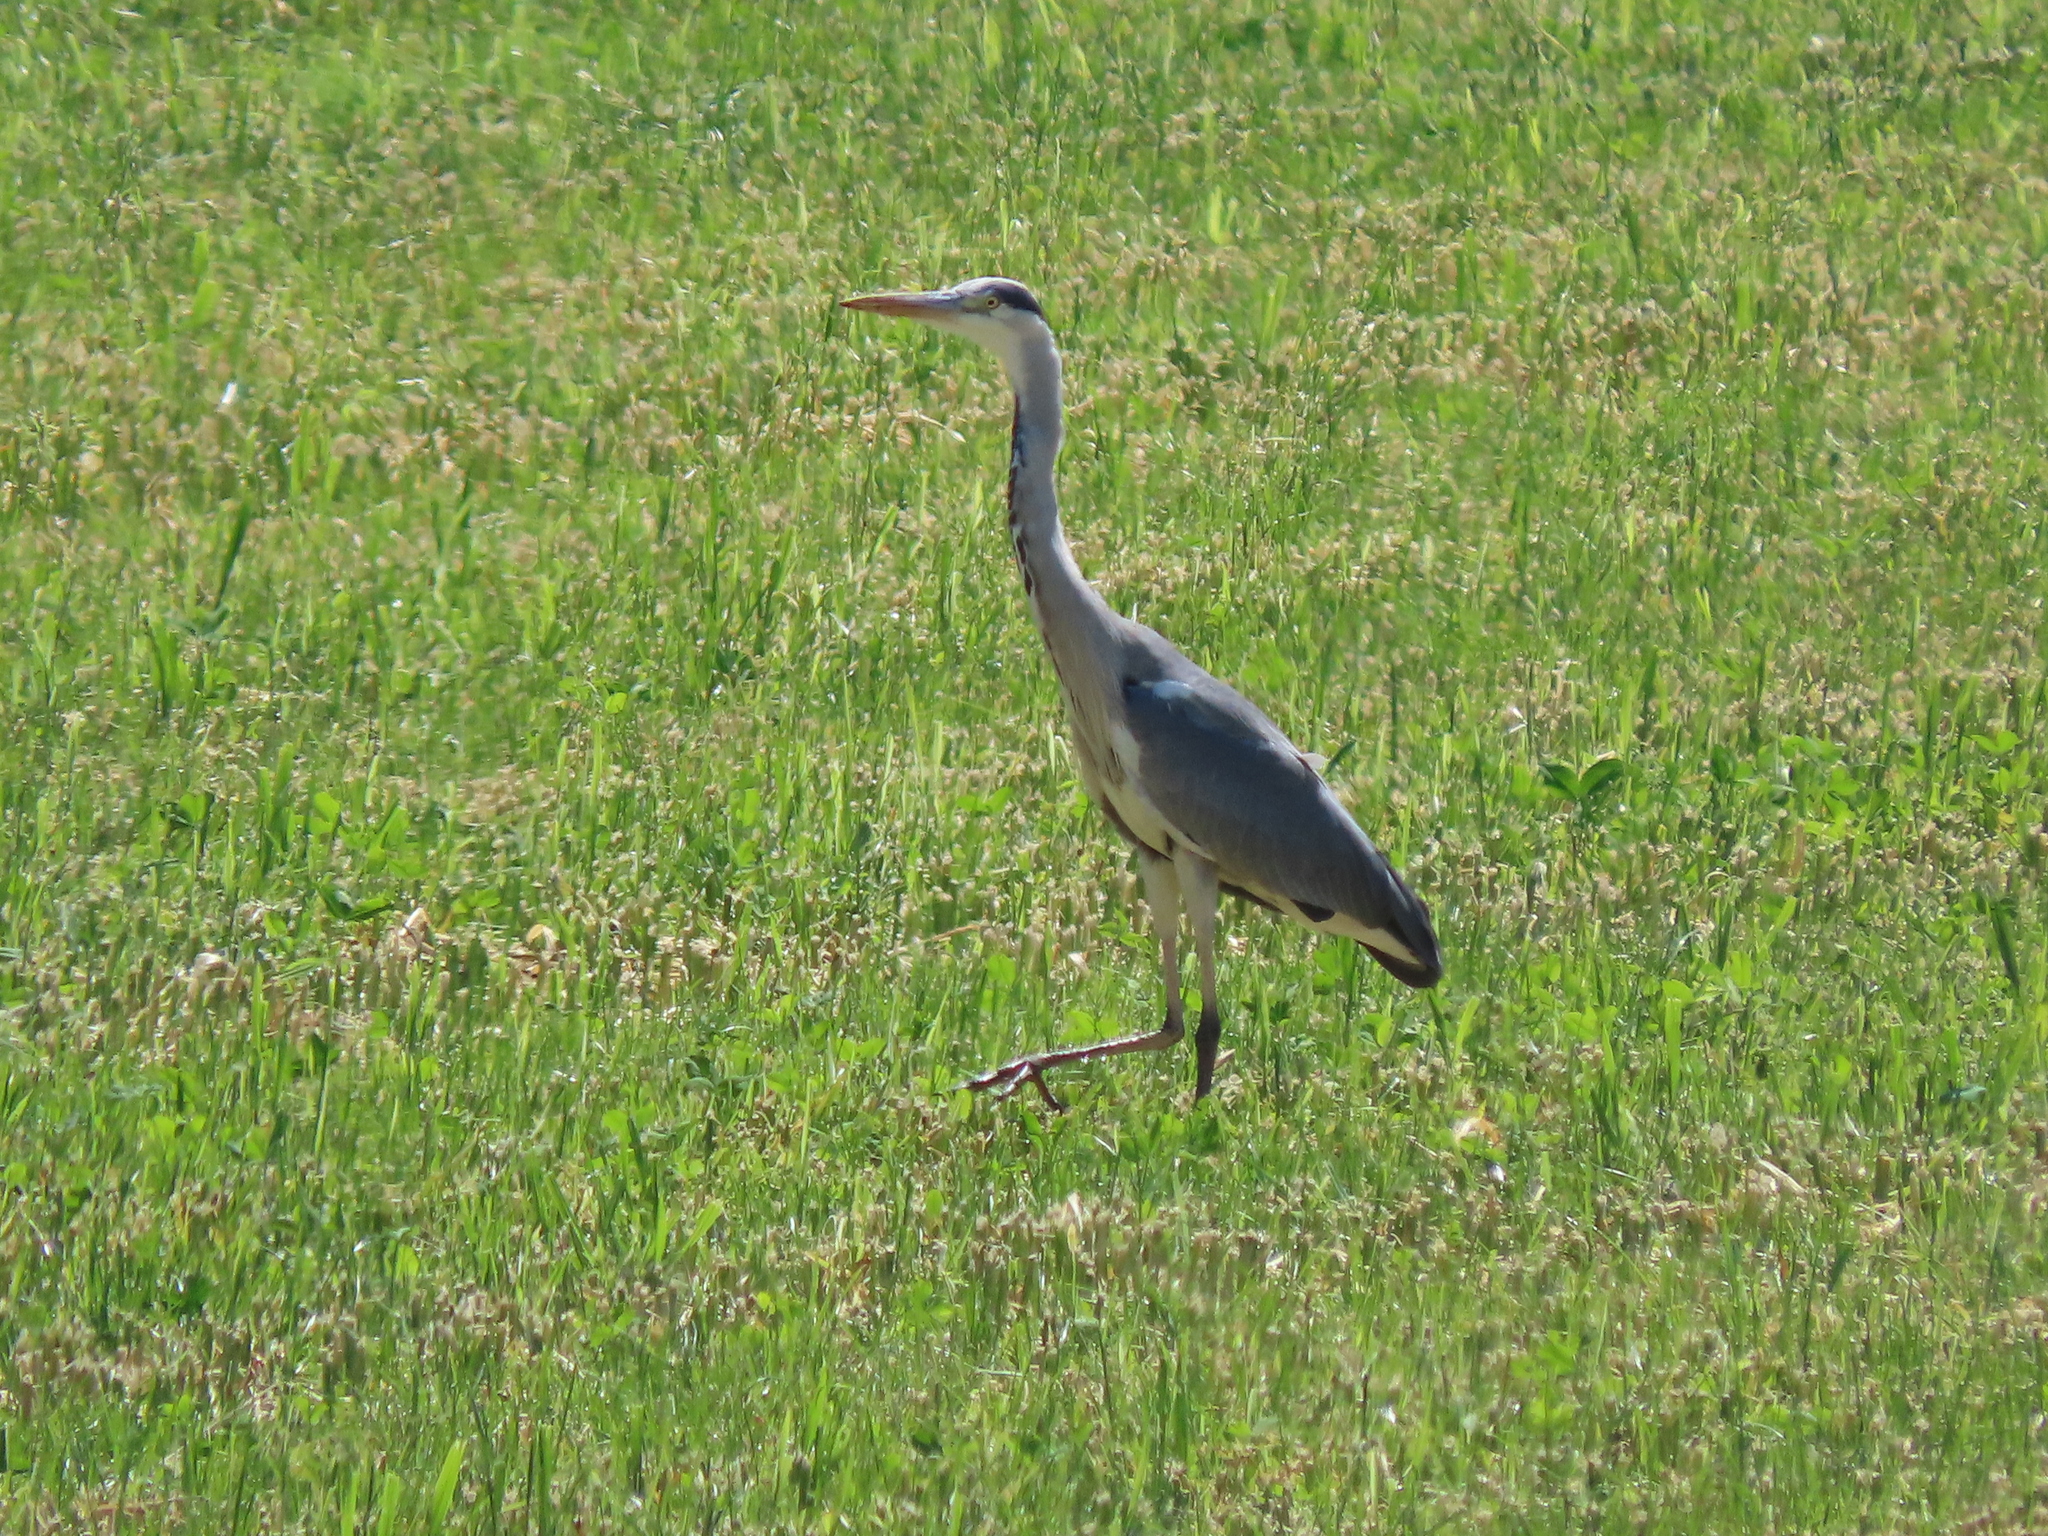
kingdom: Animalia
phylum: Chordata
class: Aves
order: Pelecaniformes
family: Ardeidae
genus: Ardea
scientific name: Ardea cinerea
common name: Grey heron
